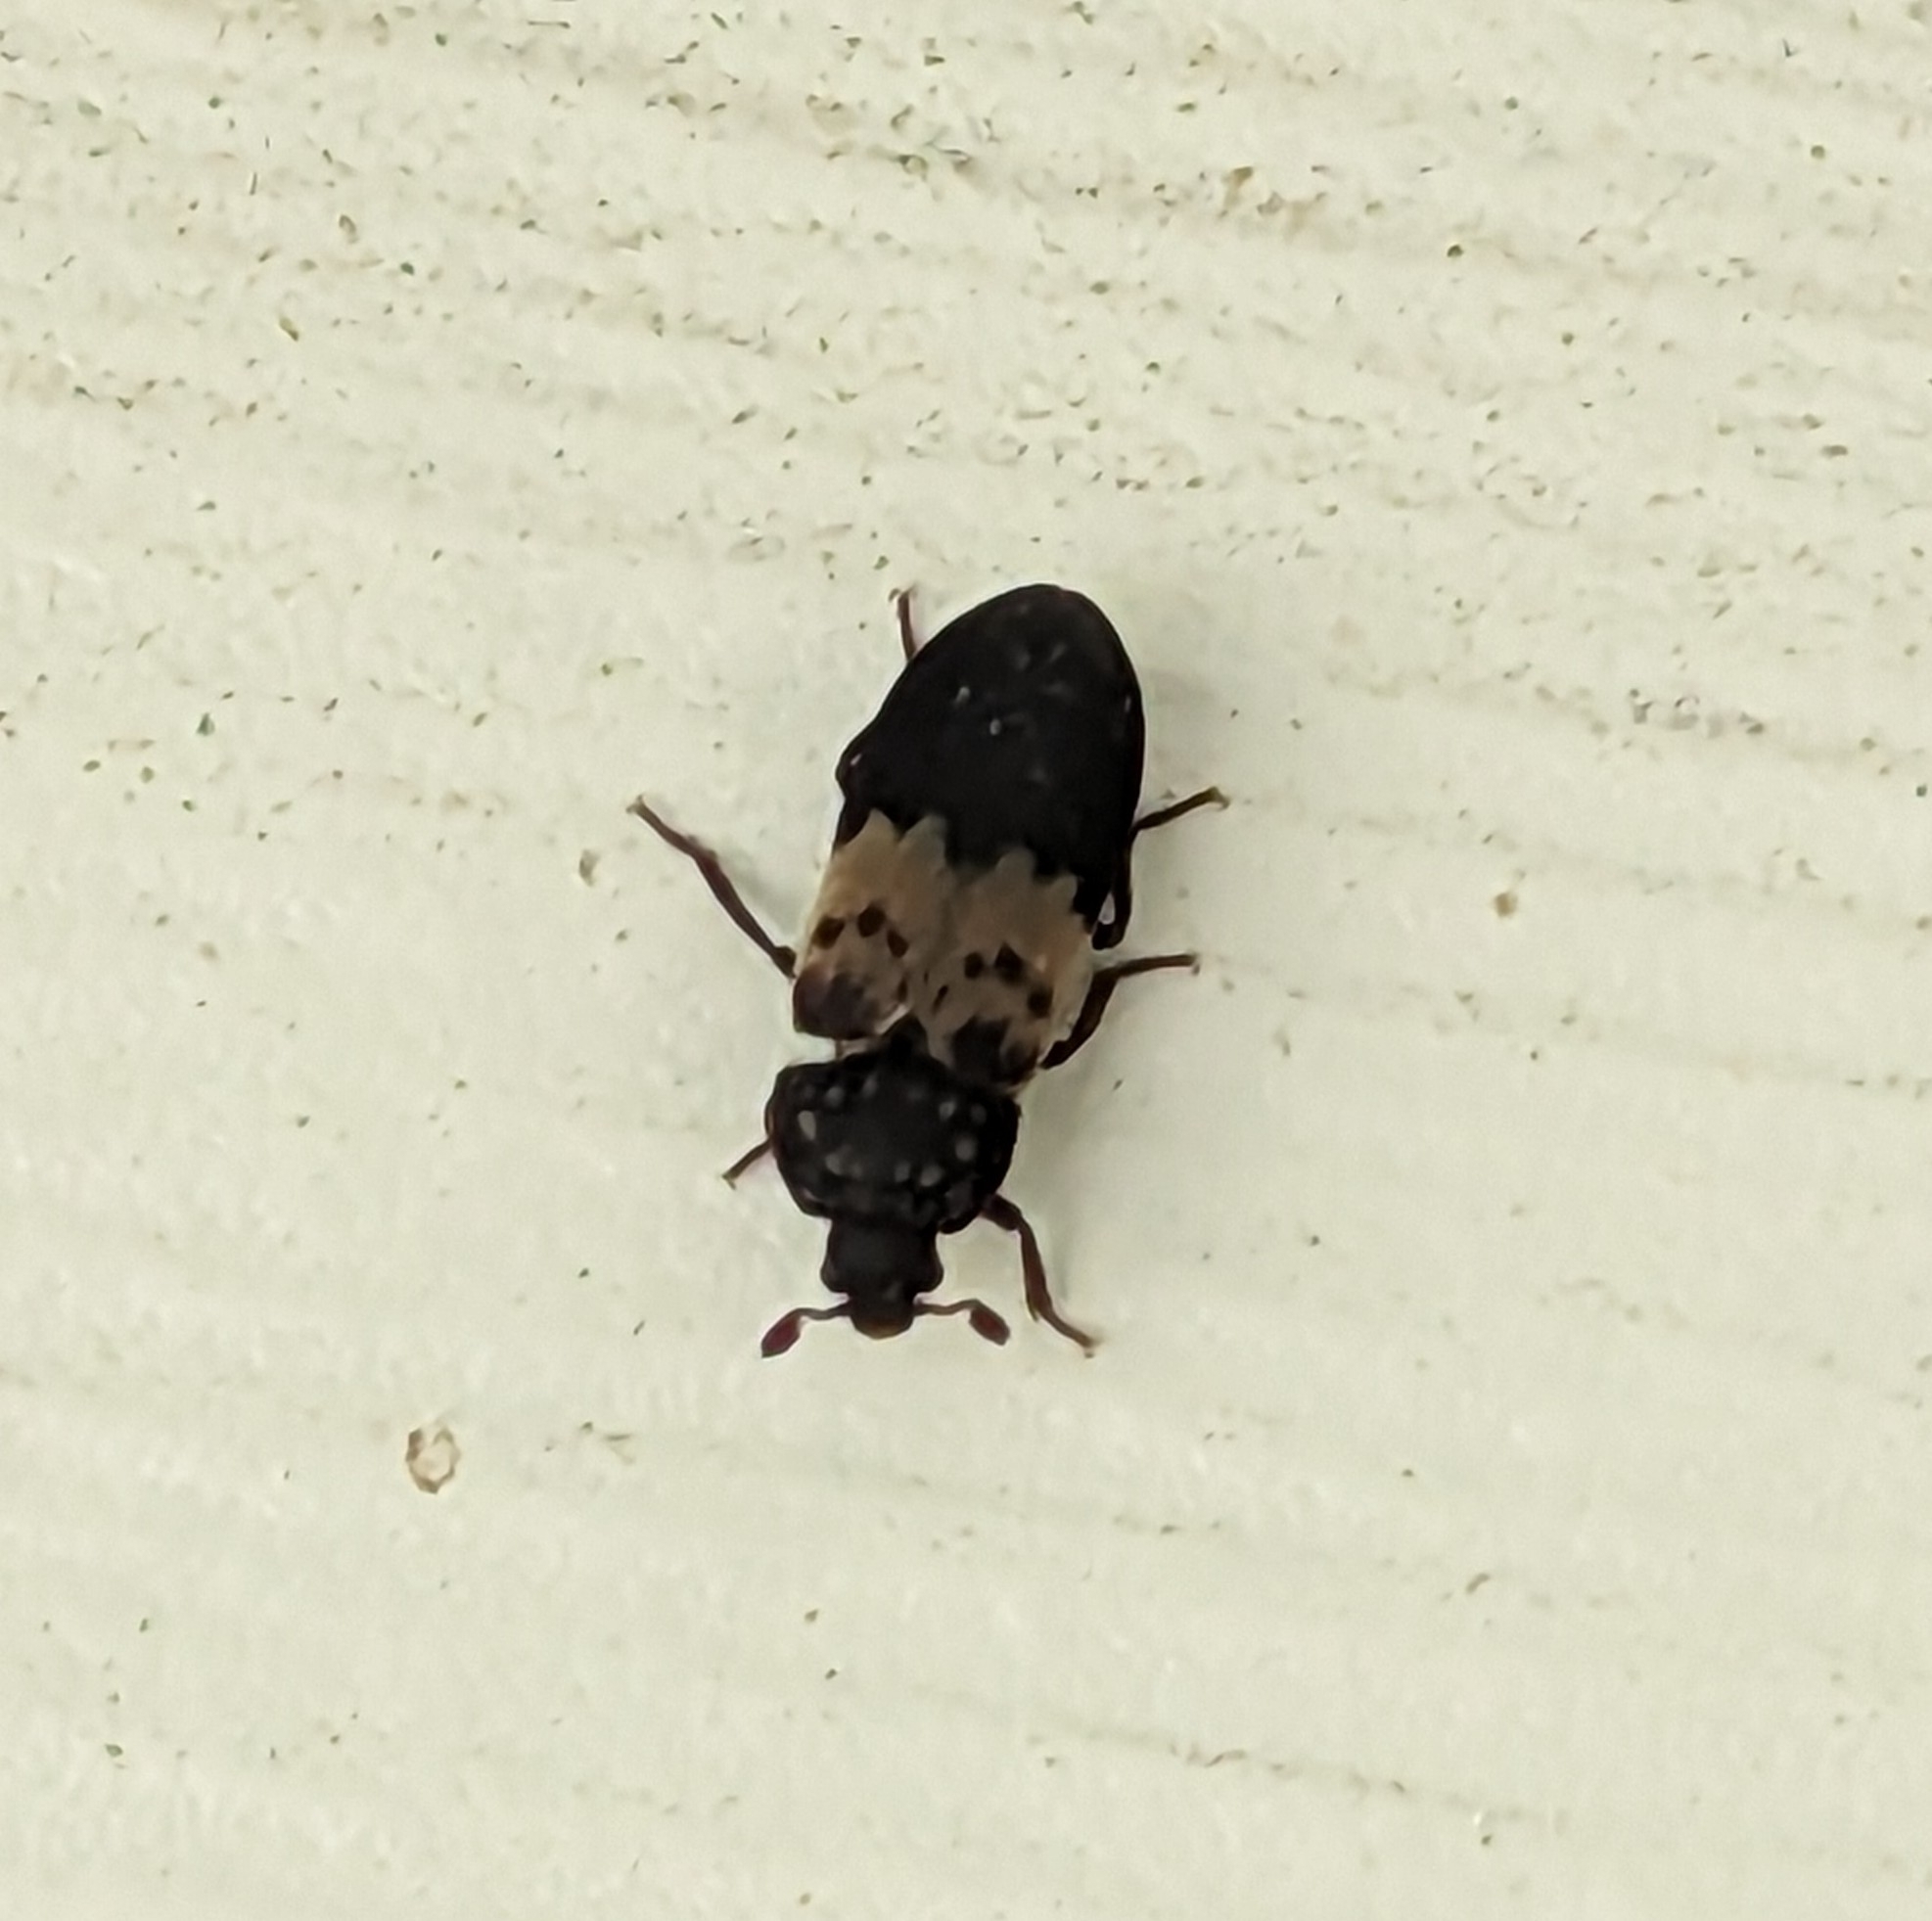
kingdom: Animalia
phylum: Arthropoda
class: Insecta
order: Coleoptera
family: Dermestidae
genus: Dermestes
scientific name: Dermestes lardarius
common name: Larder beetle
